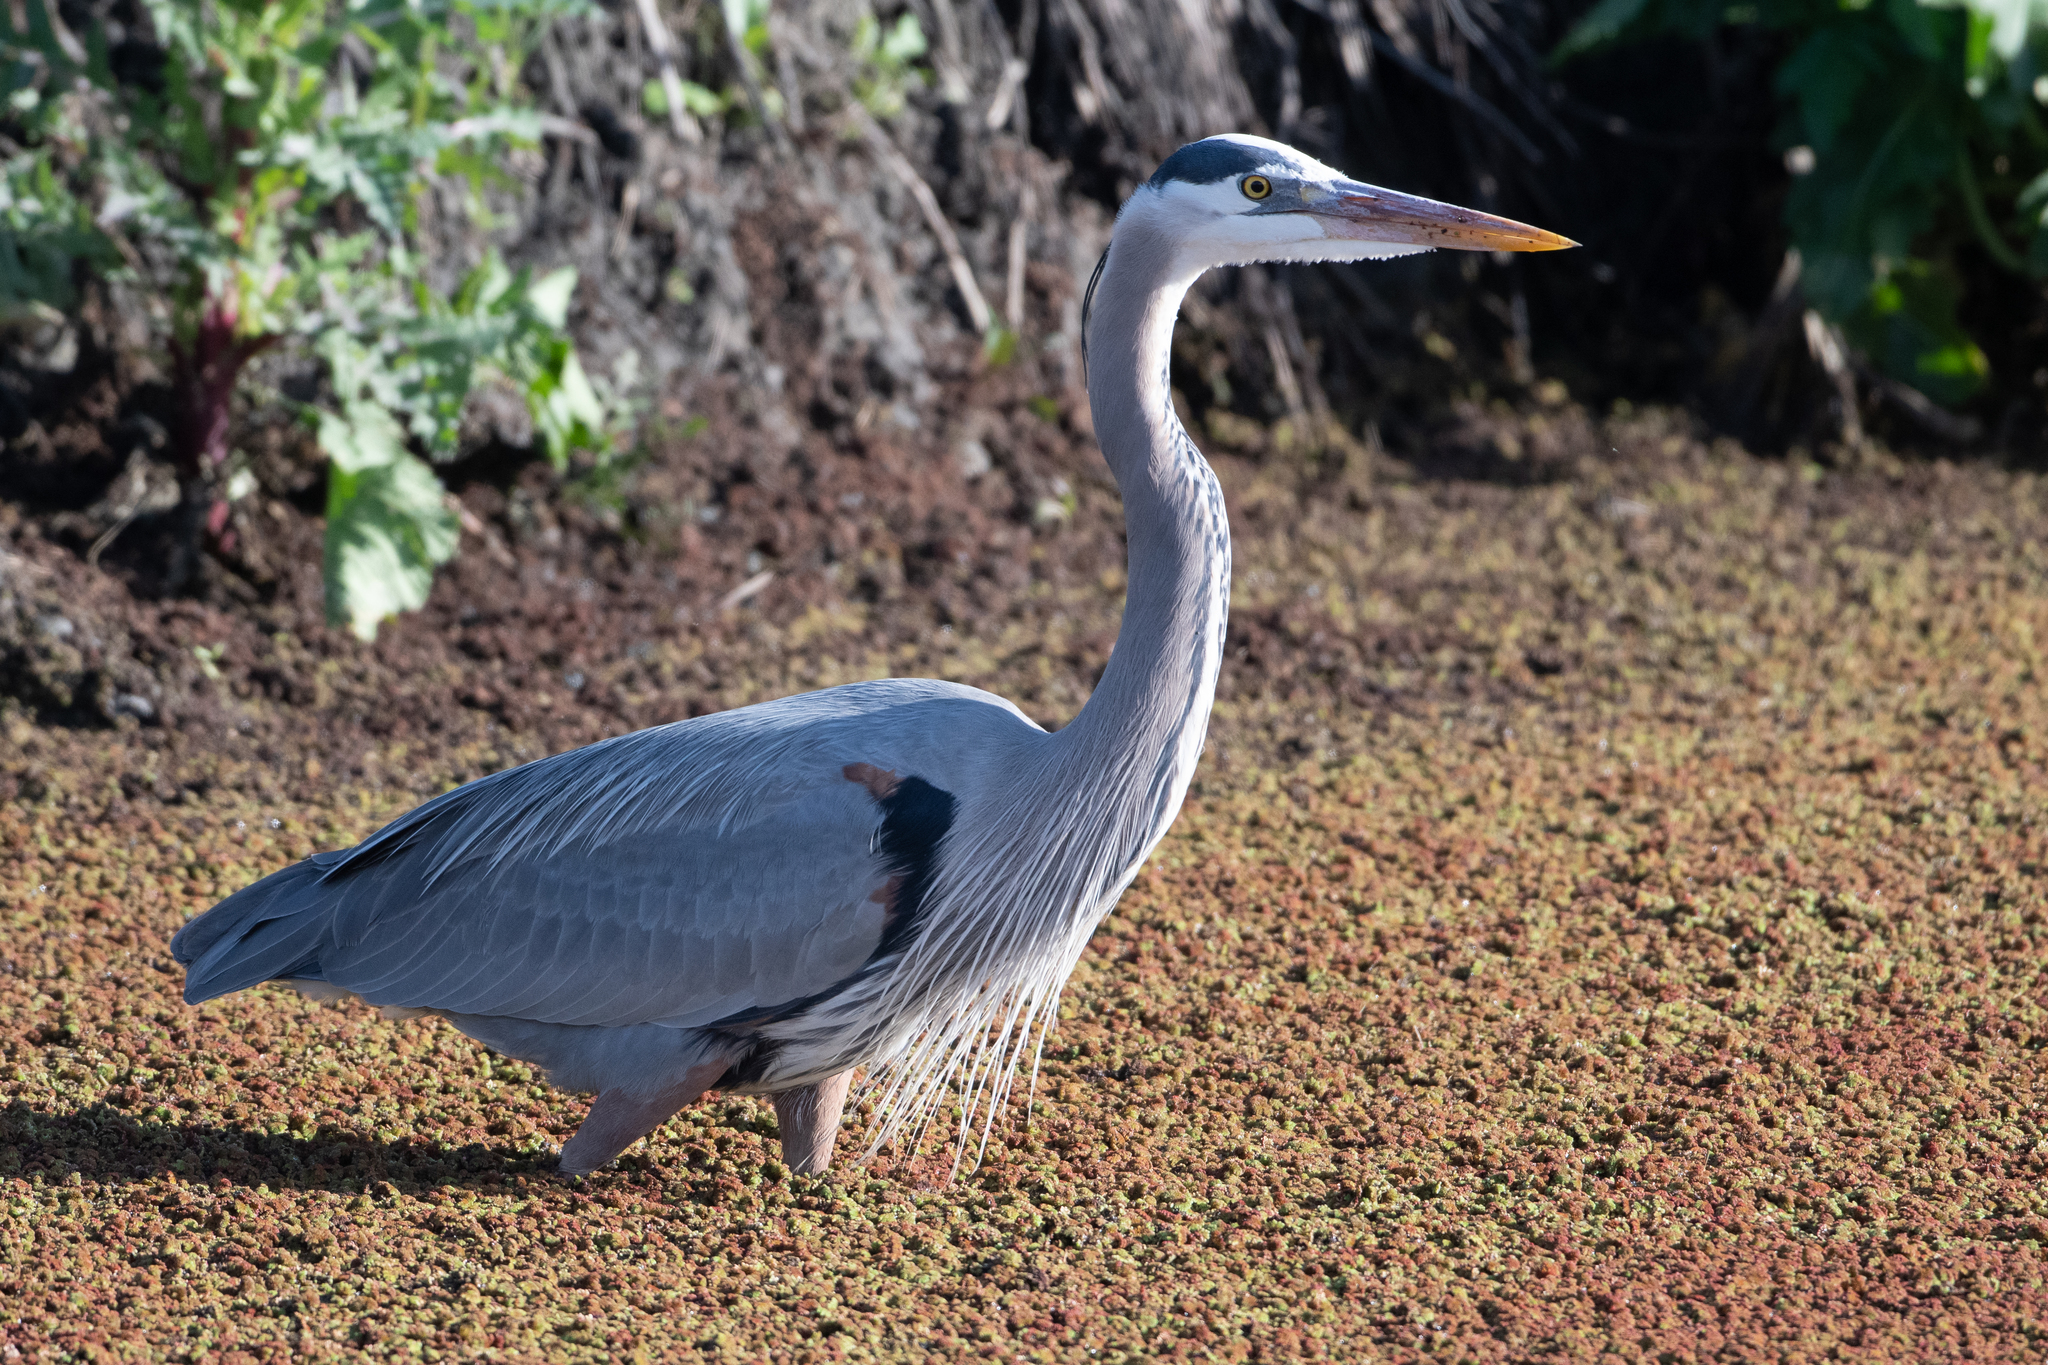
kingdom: Animalia
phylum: Chordata
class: Aves
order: Pelecaniformes
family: Ardeidae
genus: Ardea
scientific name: Ardea herodias
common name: Great blue heron
